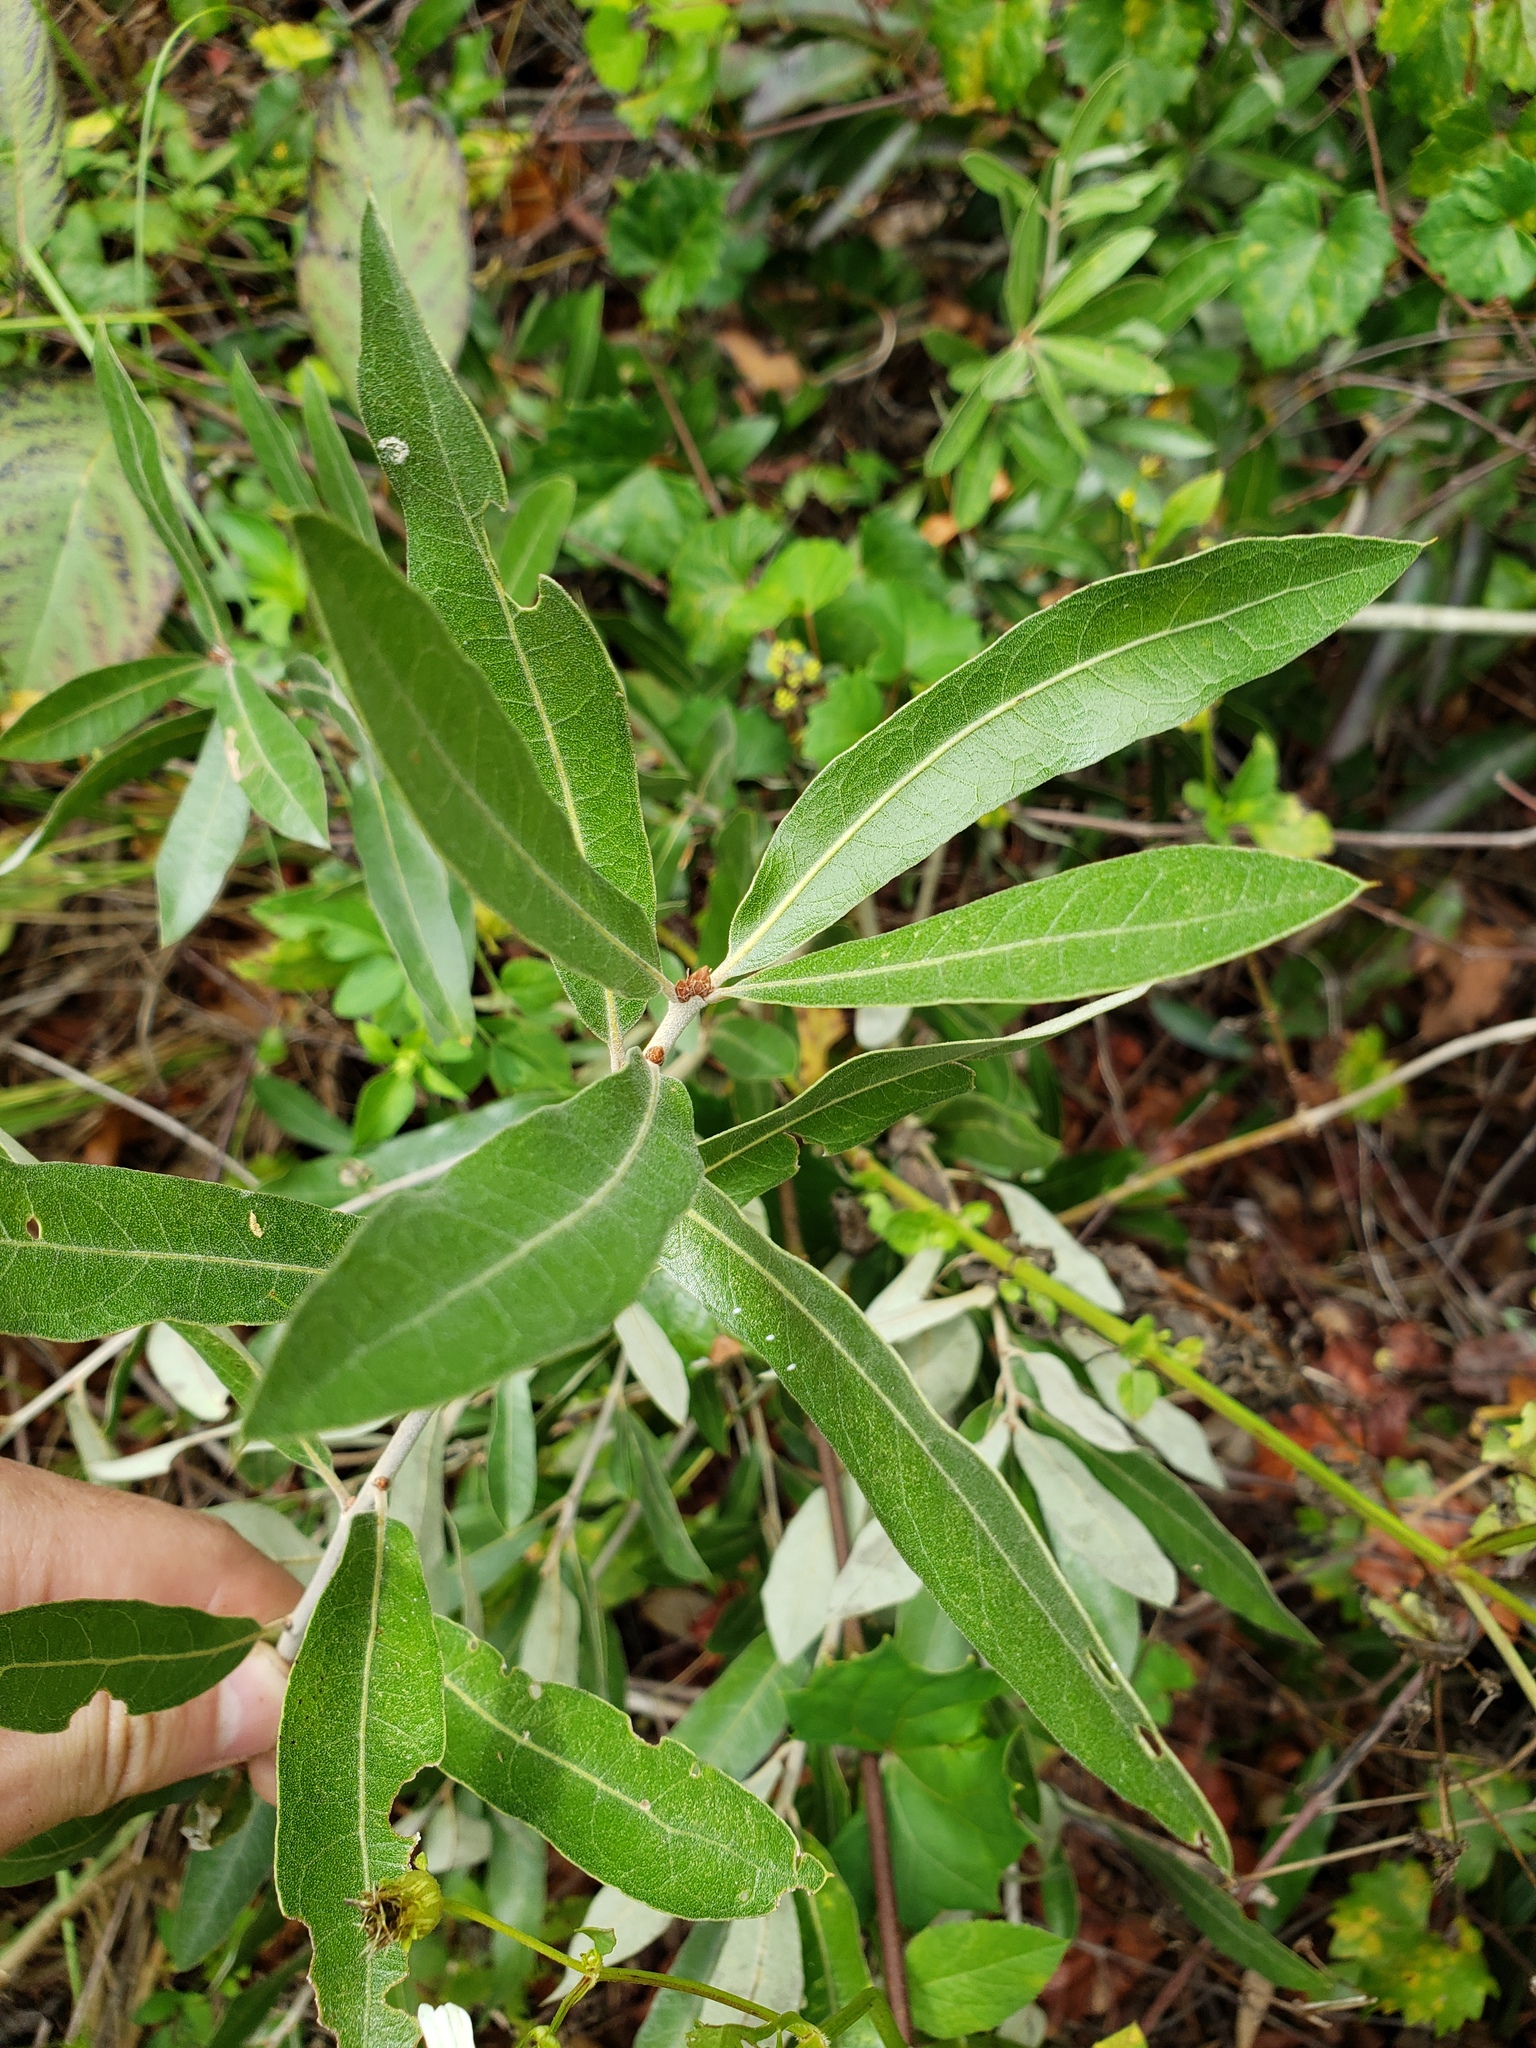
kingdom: Plantae
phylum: Tracheophyta
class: Magnoliopsida
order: Fagales
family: Fagaceae
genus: Quercus
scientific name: Quercus hemisphaerica
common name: Darlington oak
